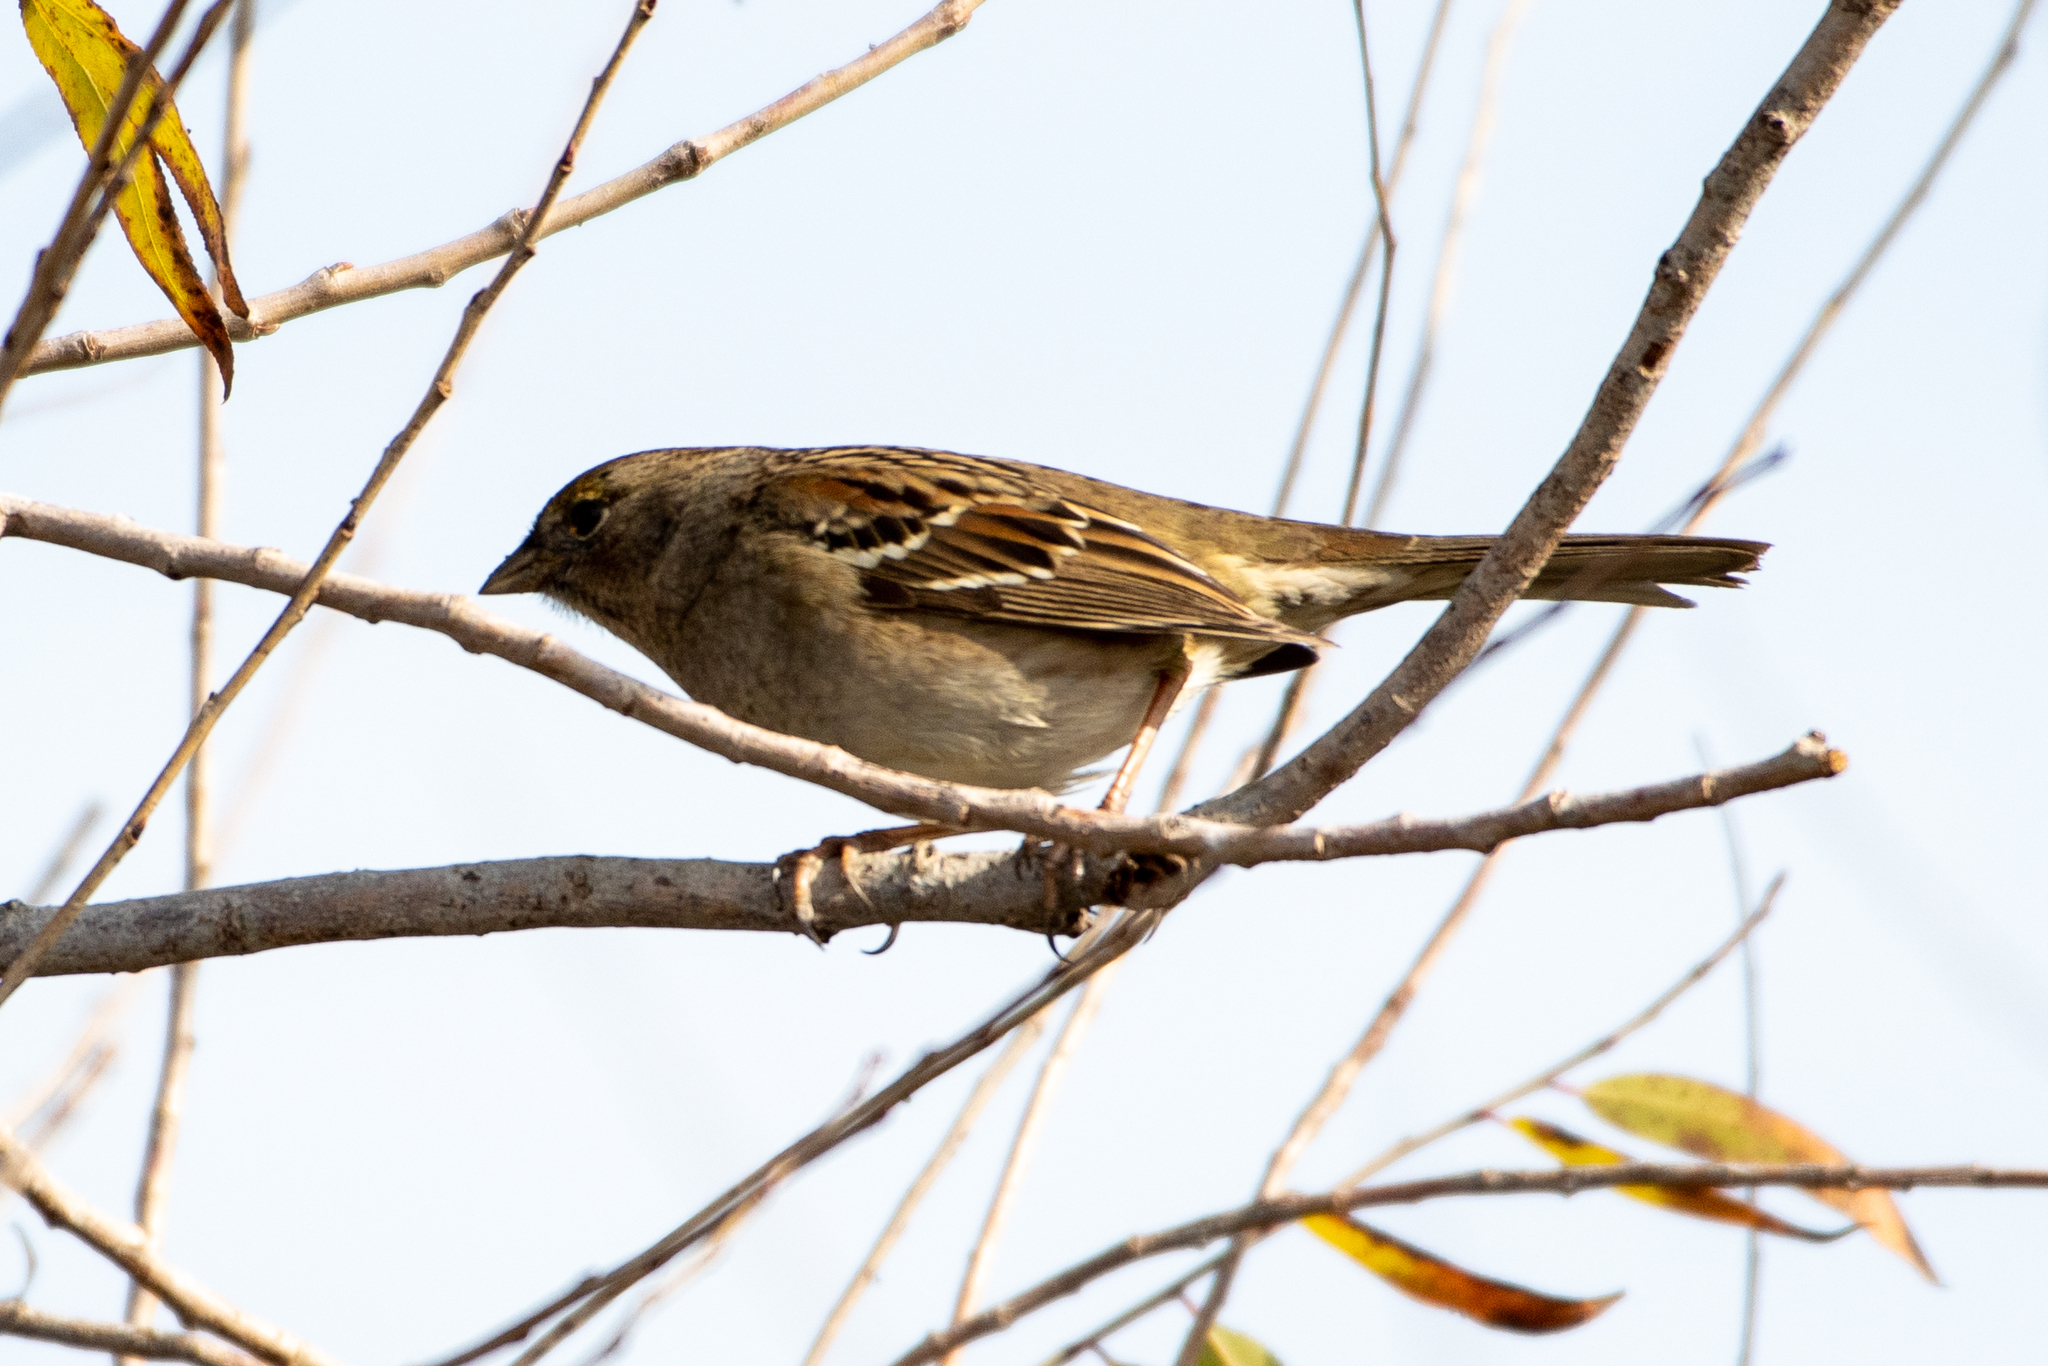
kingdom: Animalia
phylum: Chordata
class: Aves
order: Passeriformes
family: Passerellidae
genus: Zonotrichia
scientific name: Zonotrichia atricapilla
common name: Golden-crowned sparrow
